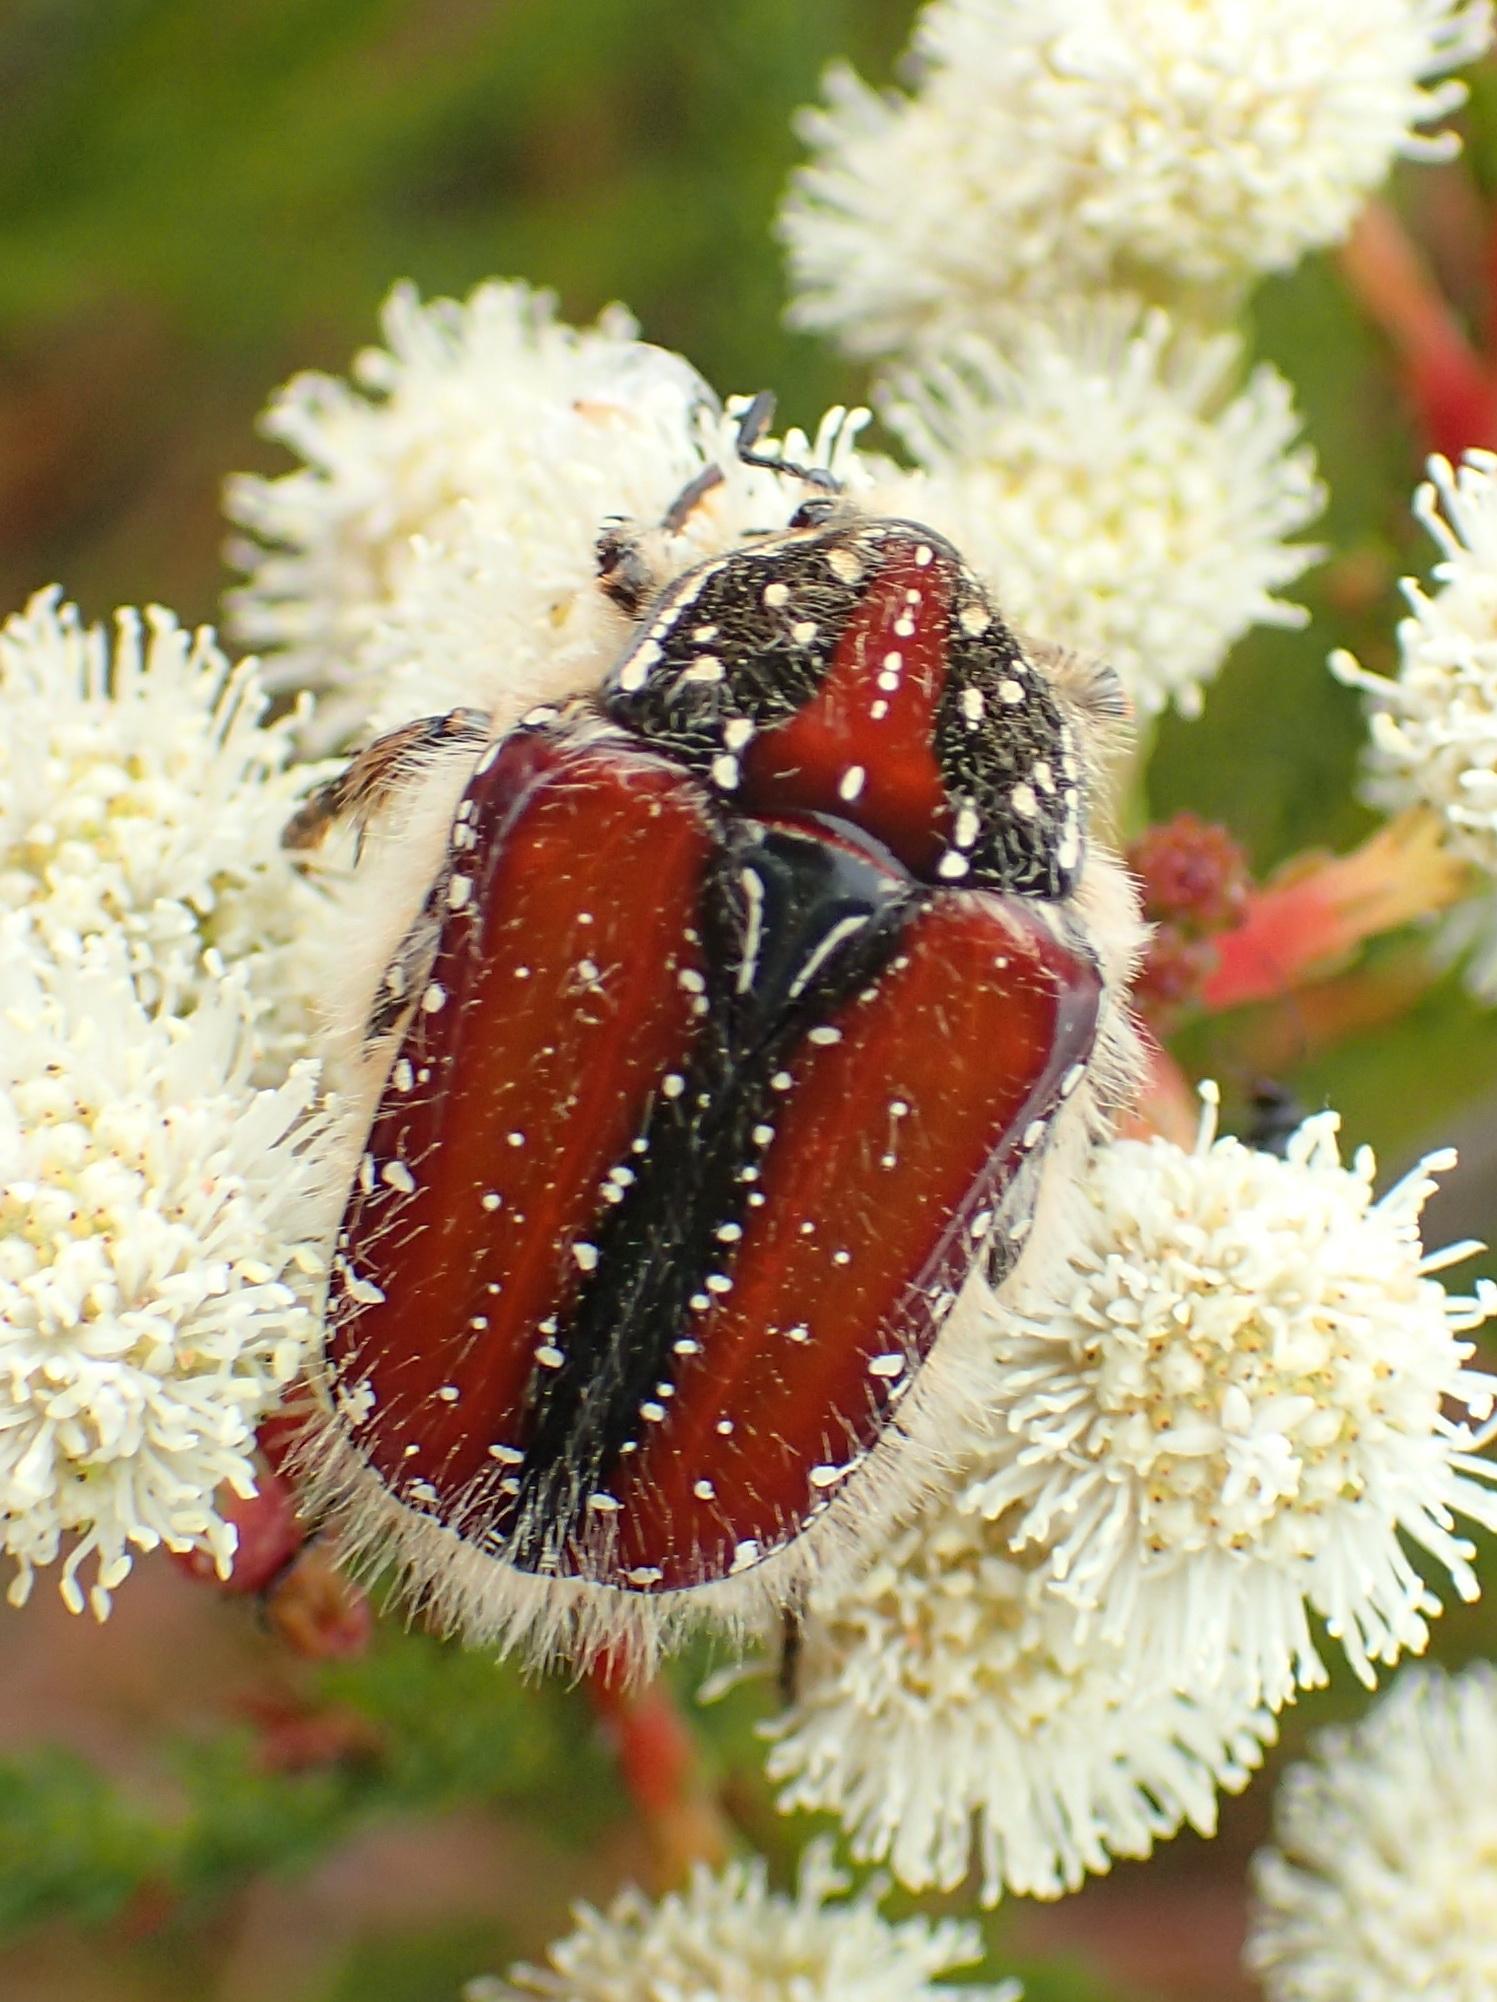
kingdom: Animalia
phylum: Arthropoda
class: Insecta
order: Coleoptera
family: Scarabaeidae
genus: Trichostetha
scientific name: Trichostetha capensis
